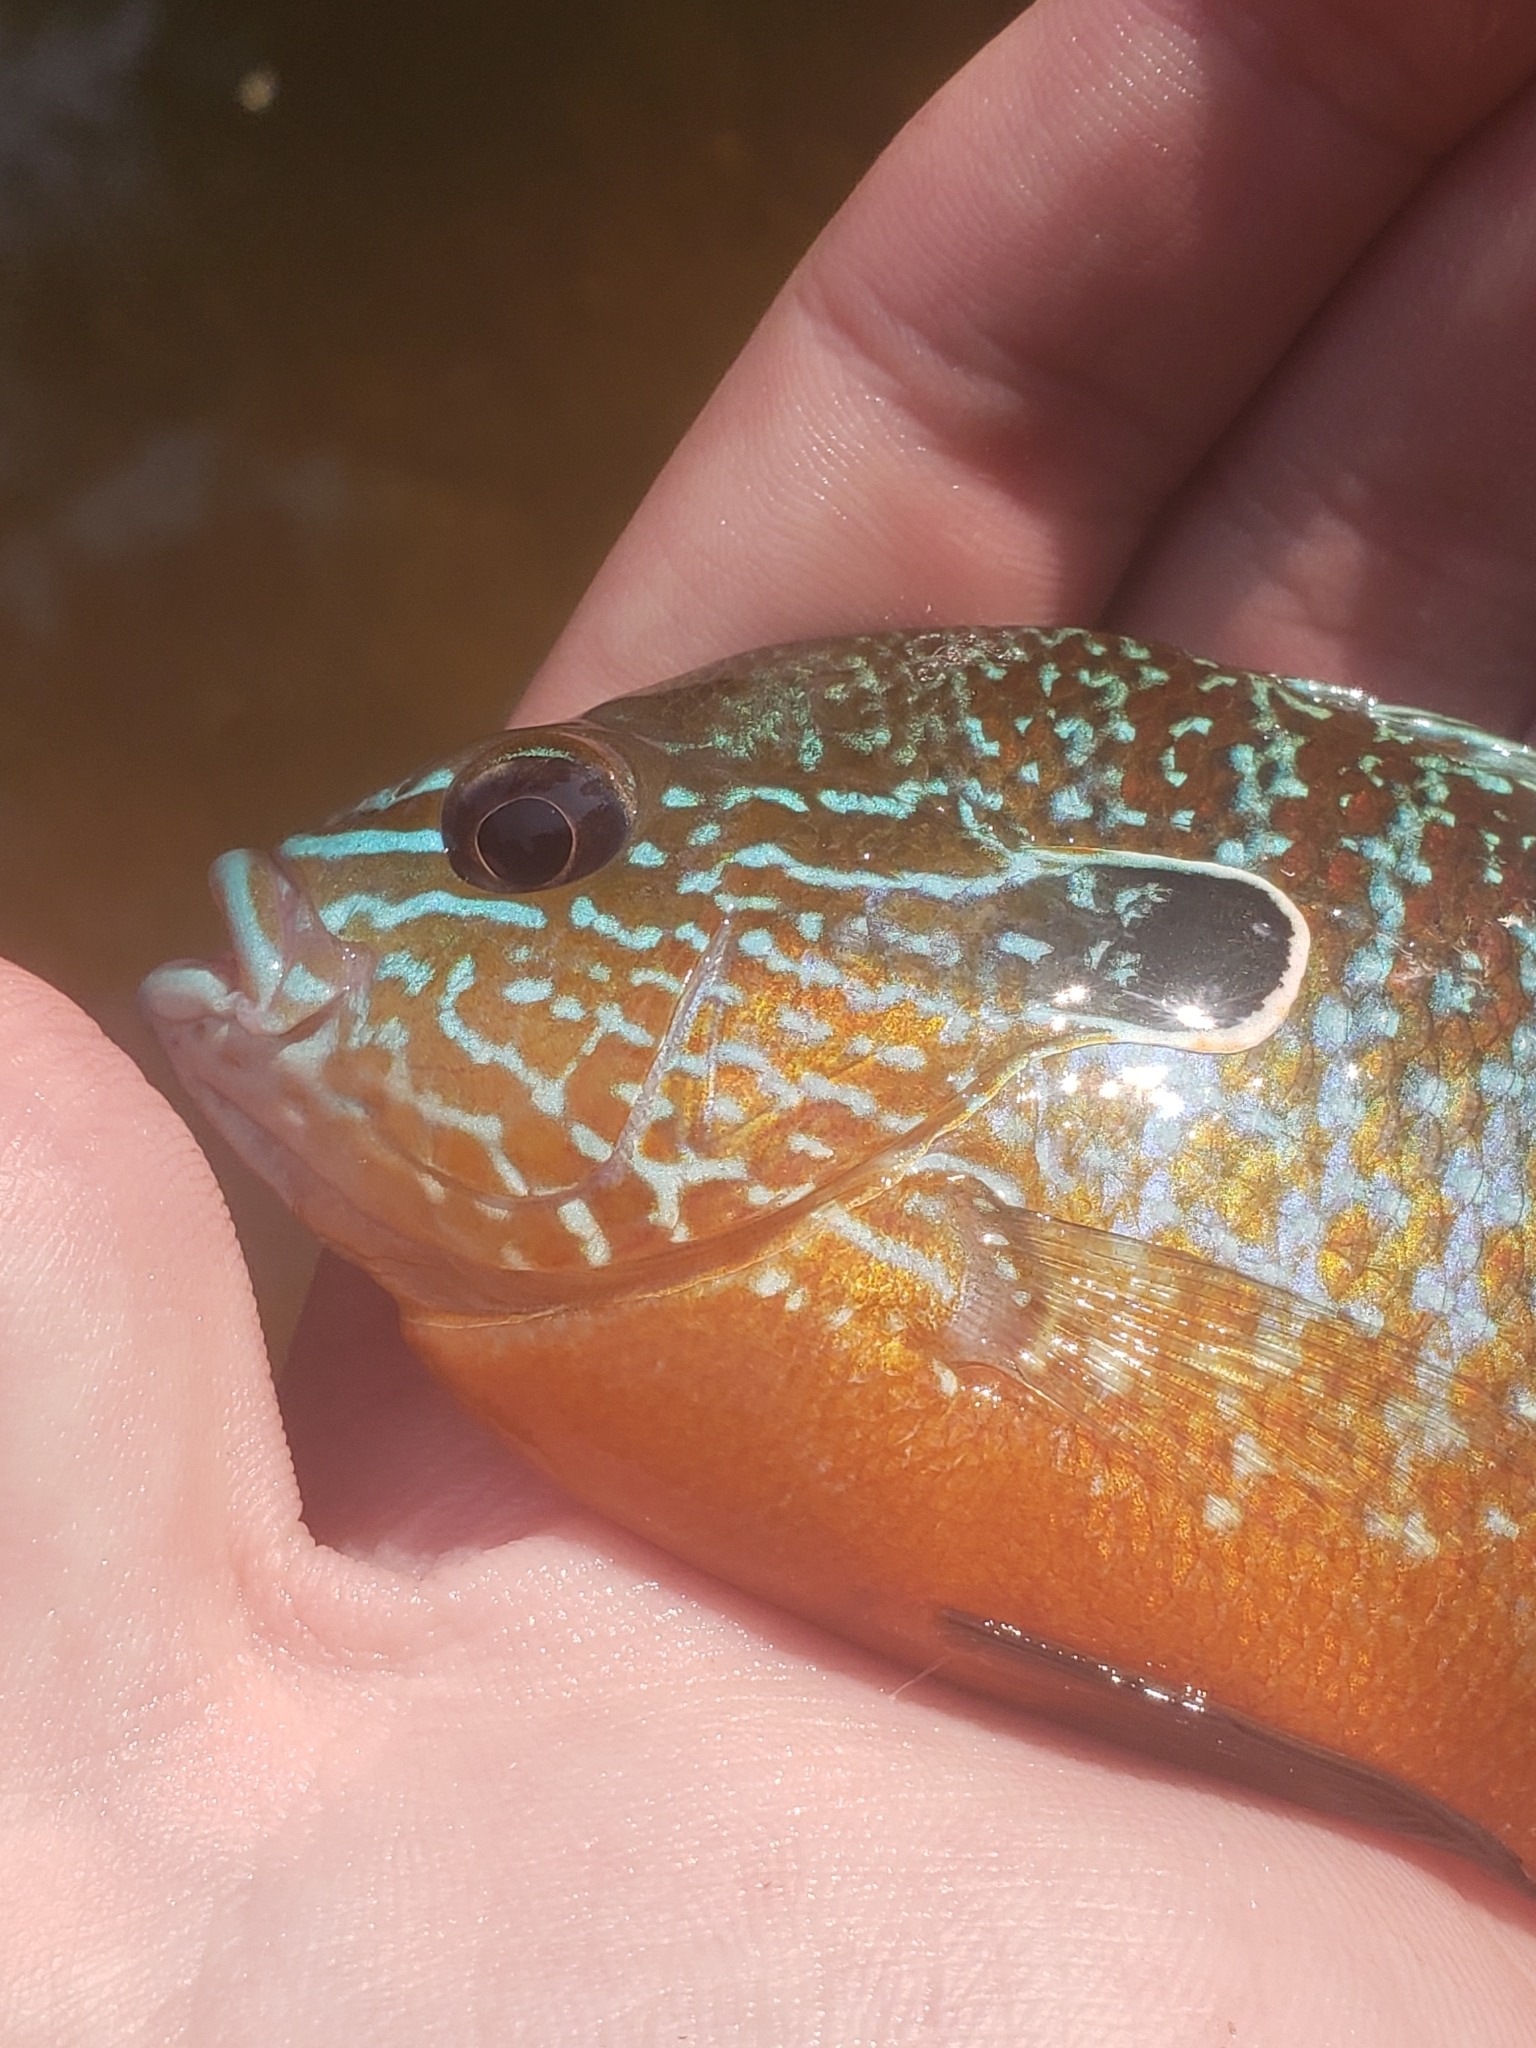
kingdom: Animalia
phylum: Chordata
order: Perciformes
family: Centrarchidae
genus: Lepomis
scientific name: Lepomis megalotis
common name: Longear sunfish
